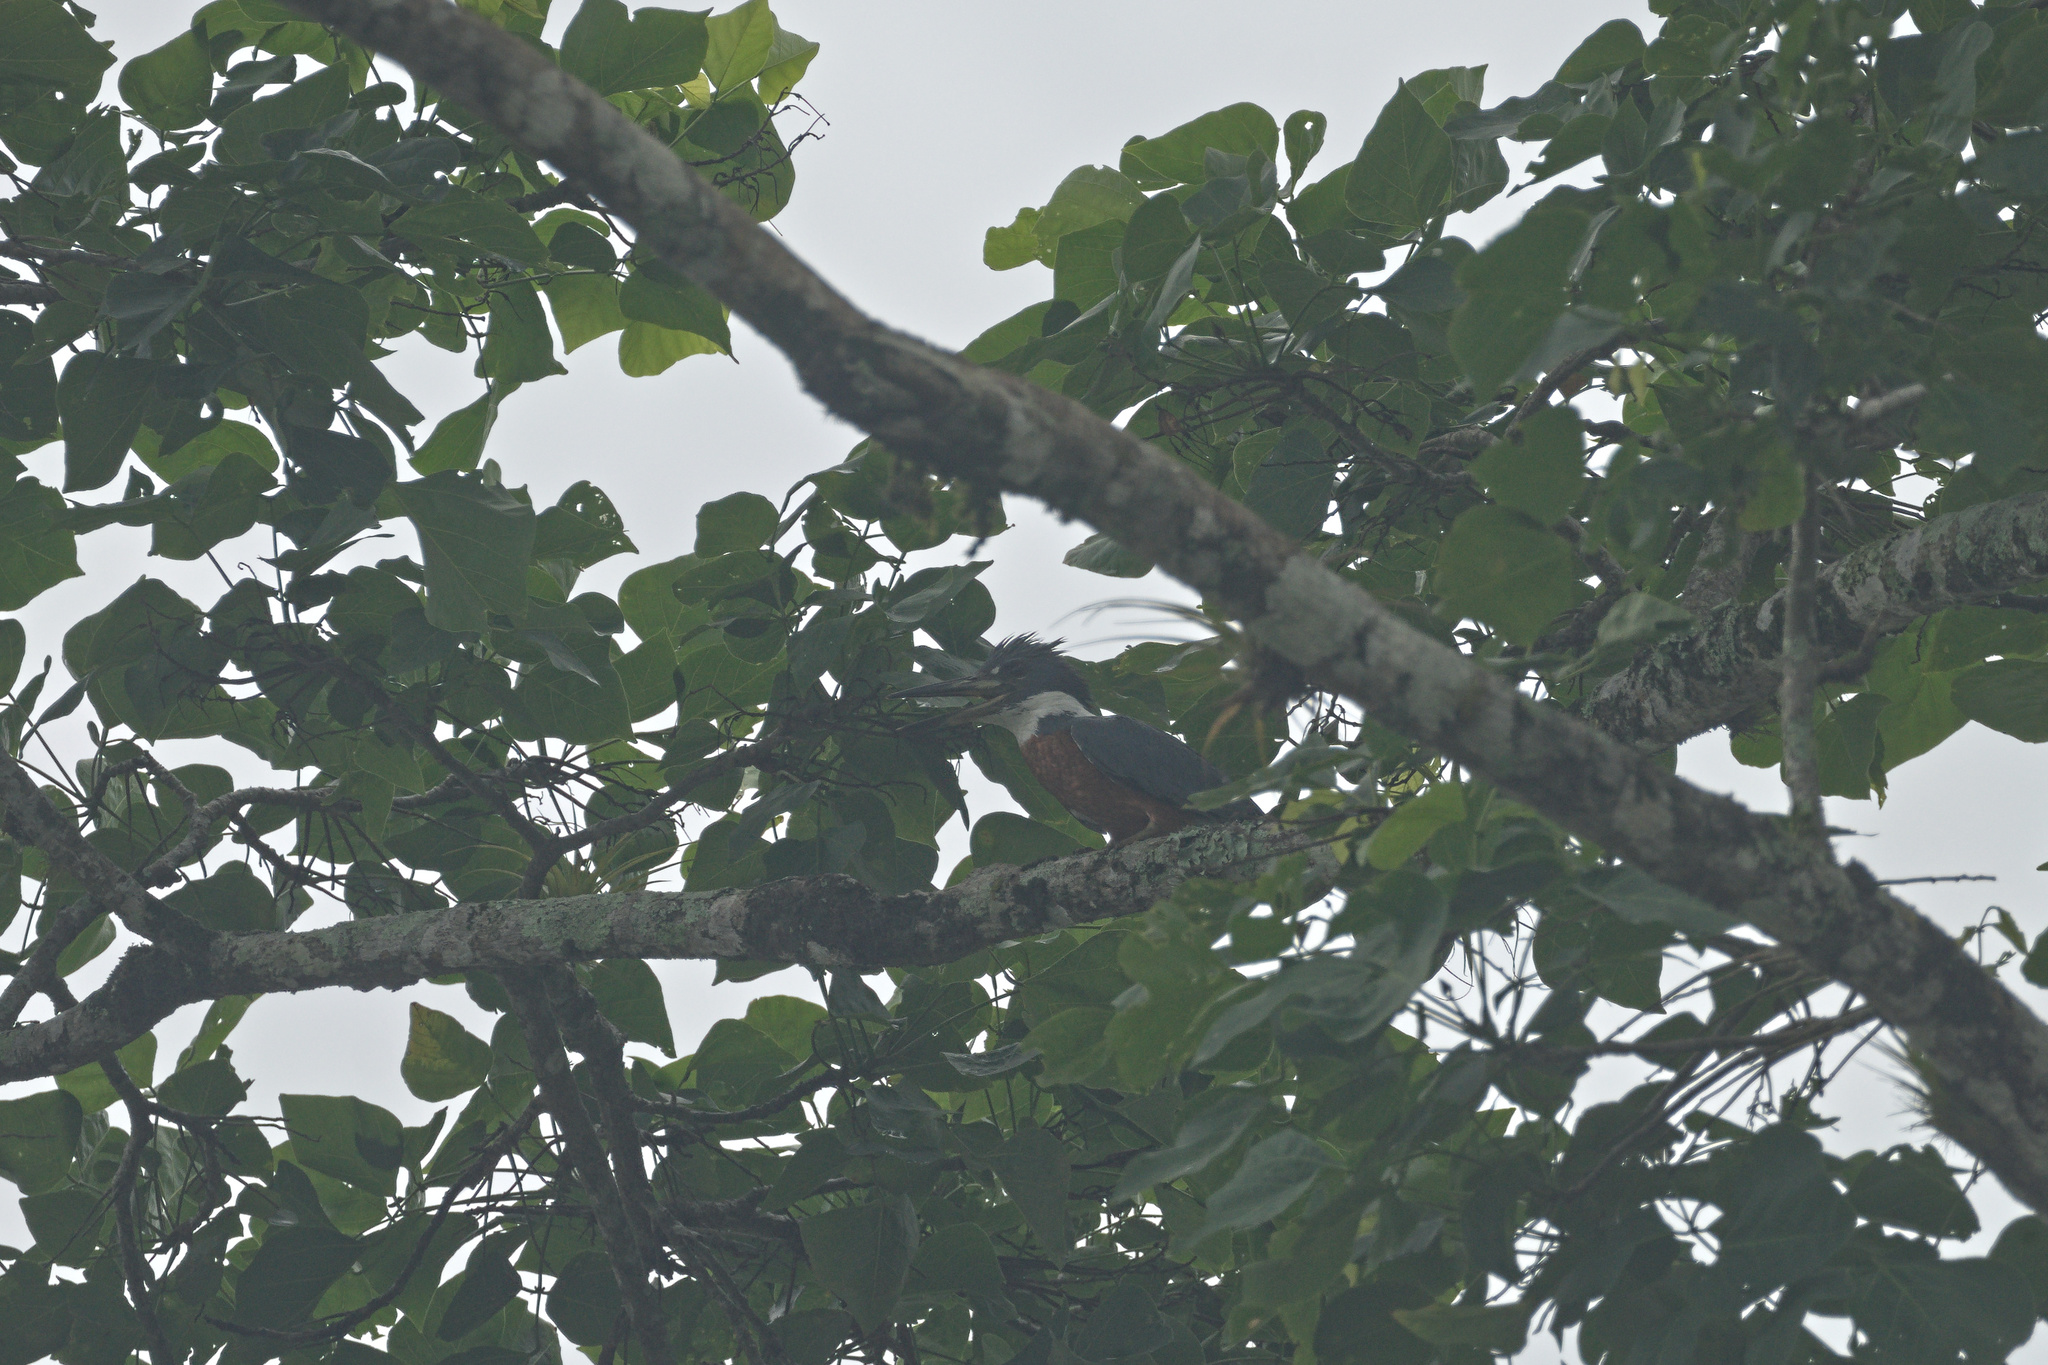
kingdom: Animalia
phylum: Chordata
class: Aves
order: Coraciiformes
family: Alcedinidae
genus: Megaceryle
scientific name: Megaceryle torquata
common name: Ringed kingfisher
